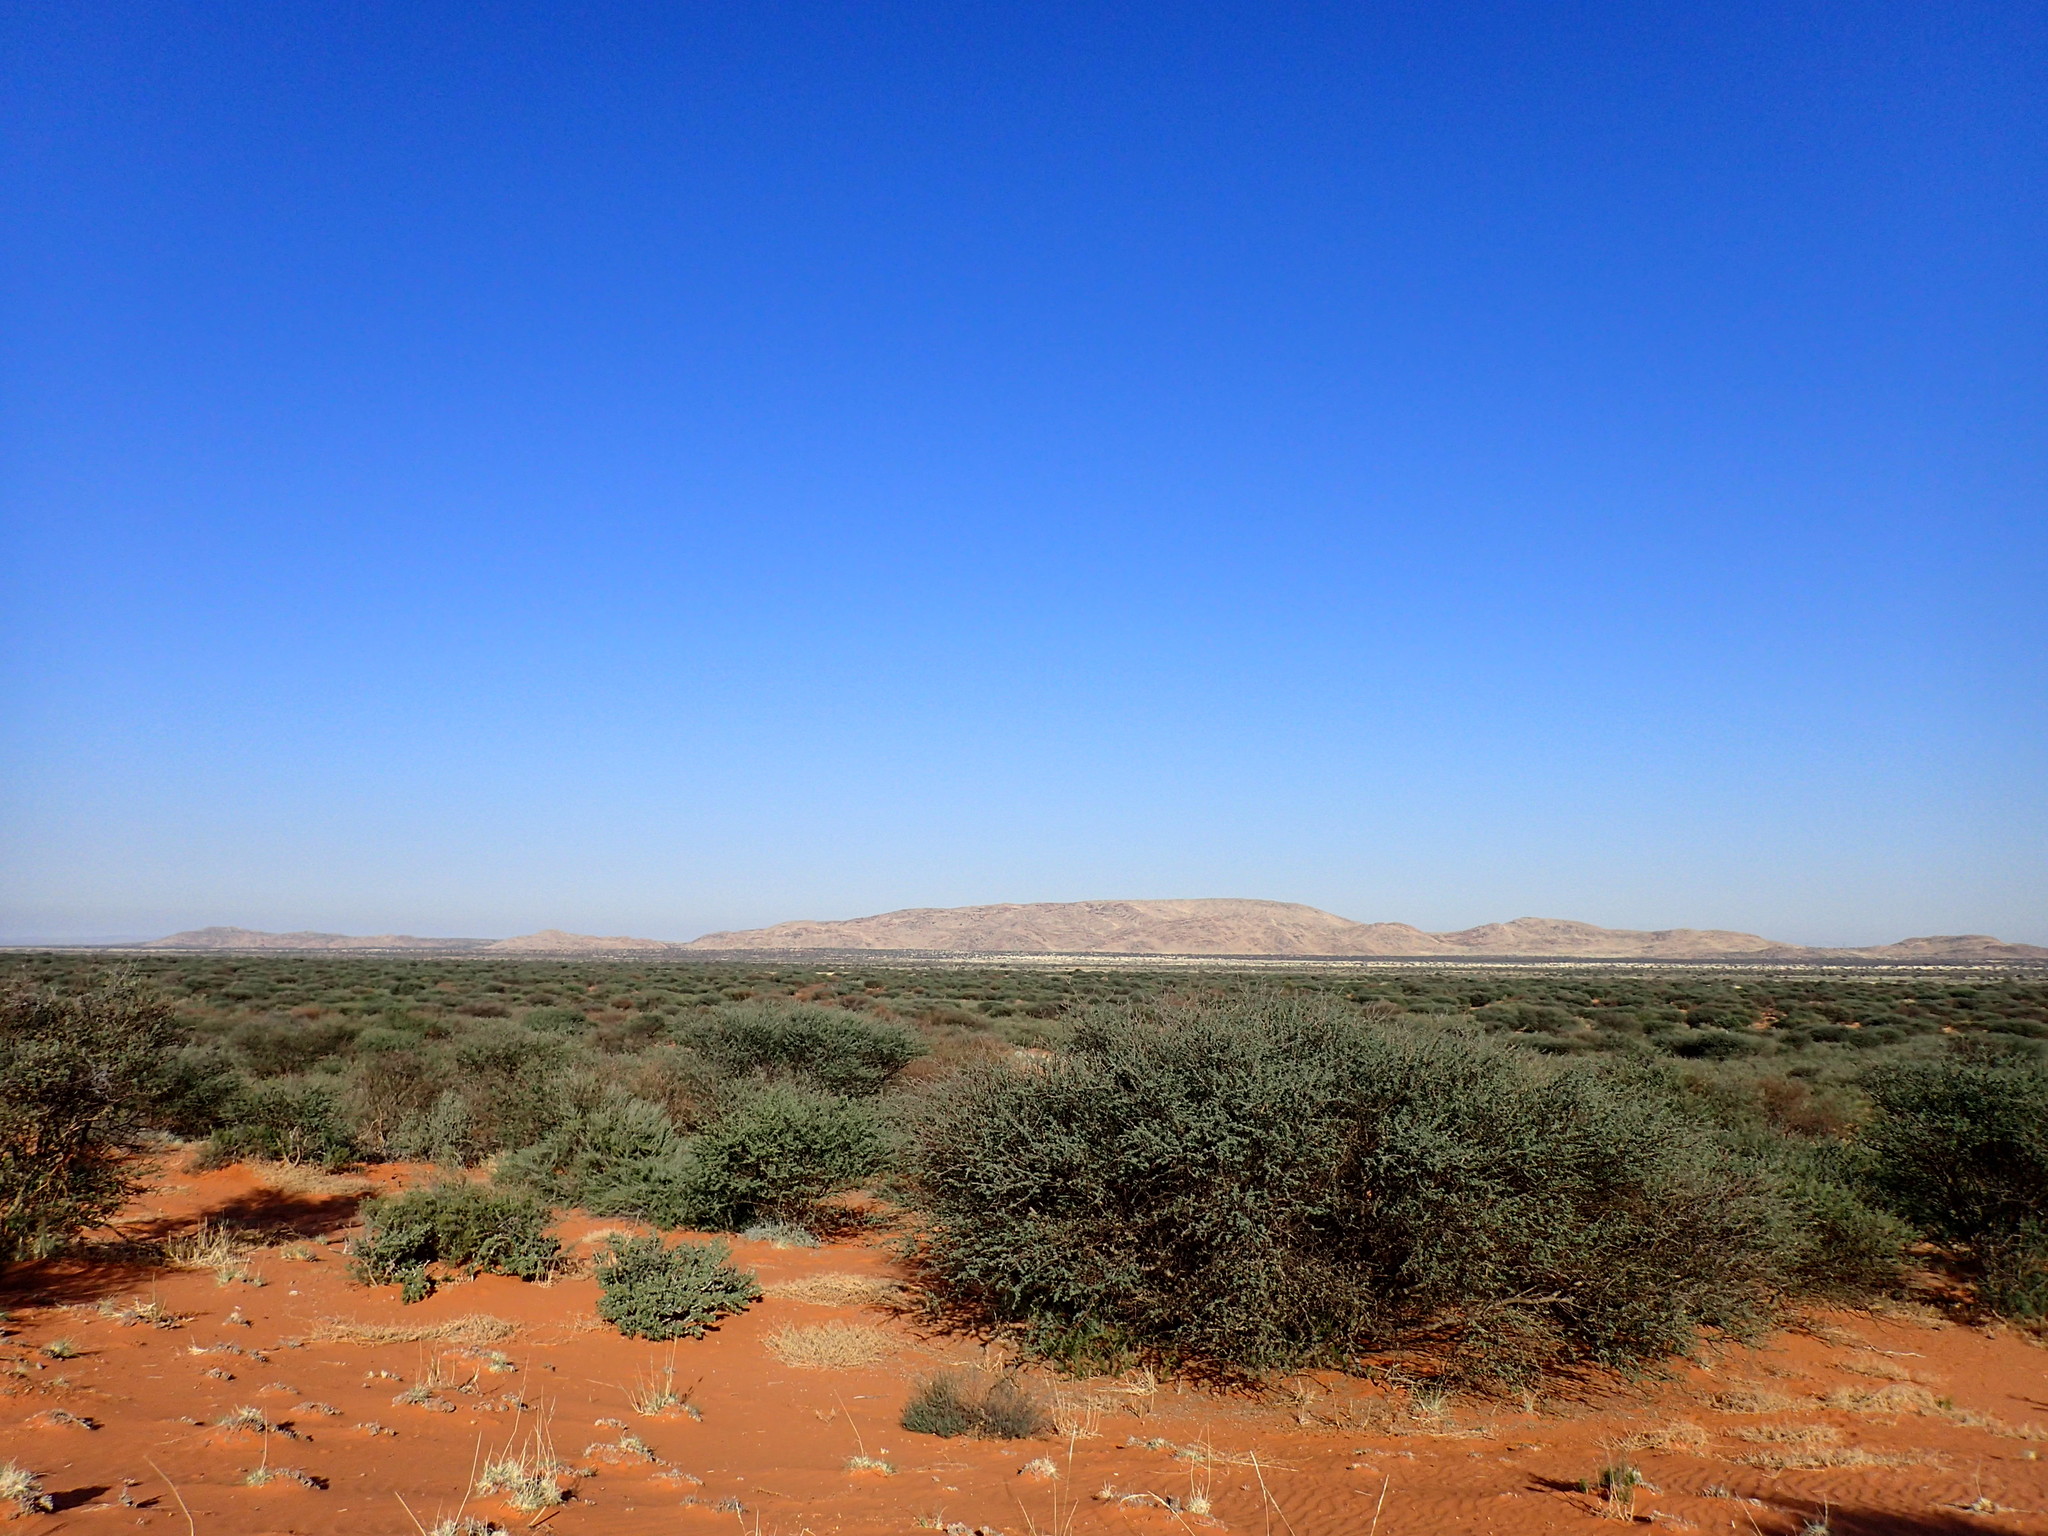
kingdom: Plantae
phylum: Tracheophyta
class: Magnoliopsida
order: Fabales
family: Fabaceae
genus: Senegalia
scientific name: Senegalia mellifera
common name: Hookthorn
